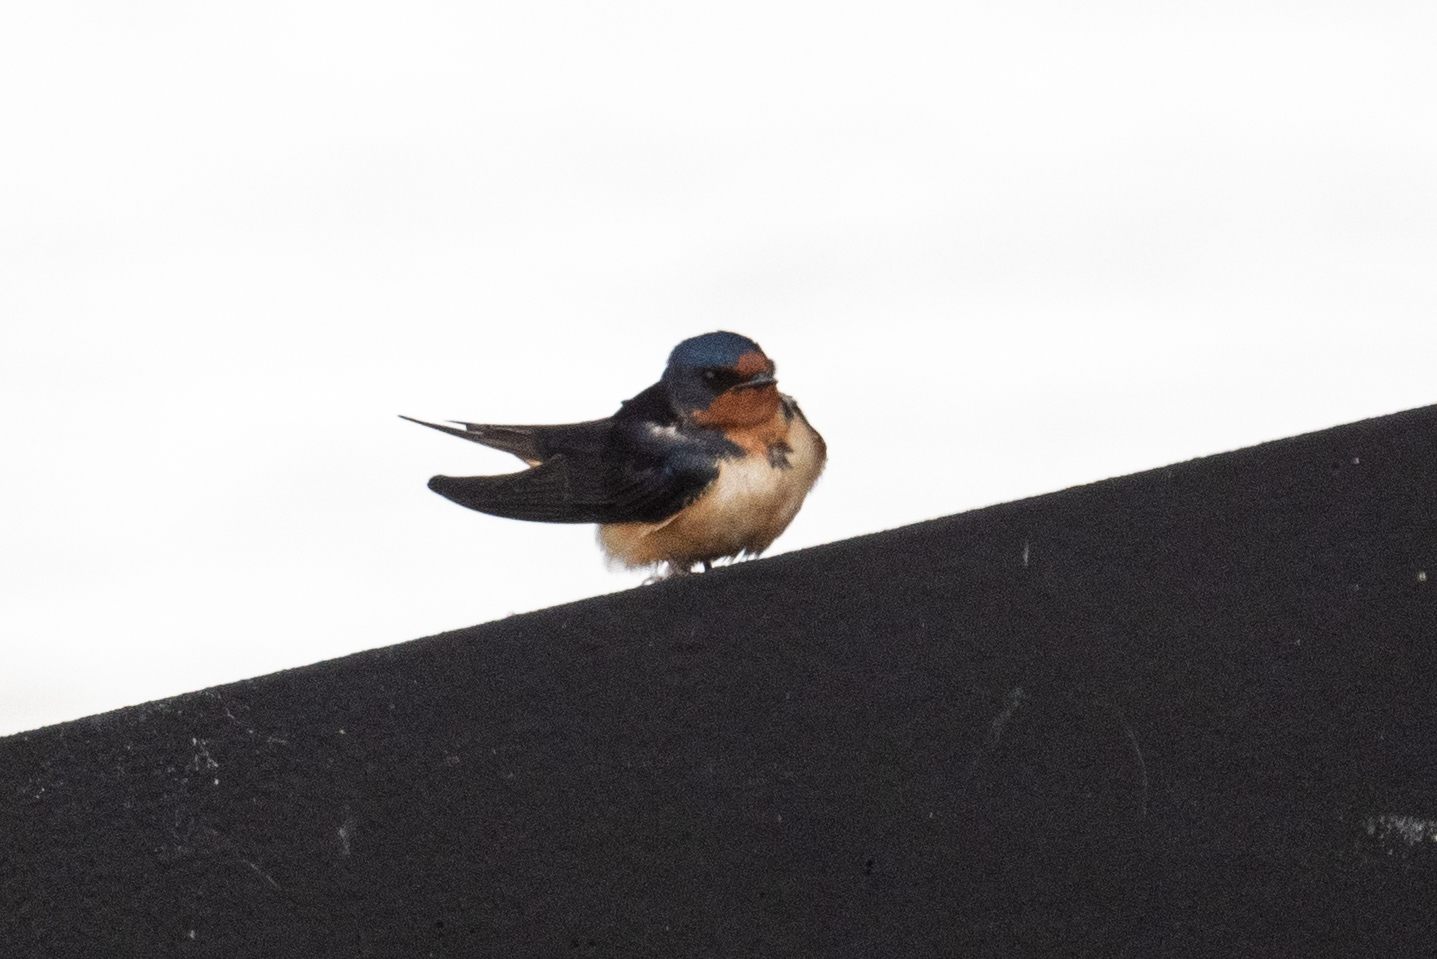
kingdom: Animalia
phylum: Chordata
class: Aves
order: Passeriformes
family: Hirundinidae
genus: Hirundo
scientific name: Hirundo rustica
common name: Barn swallow
